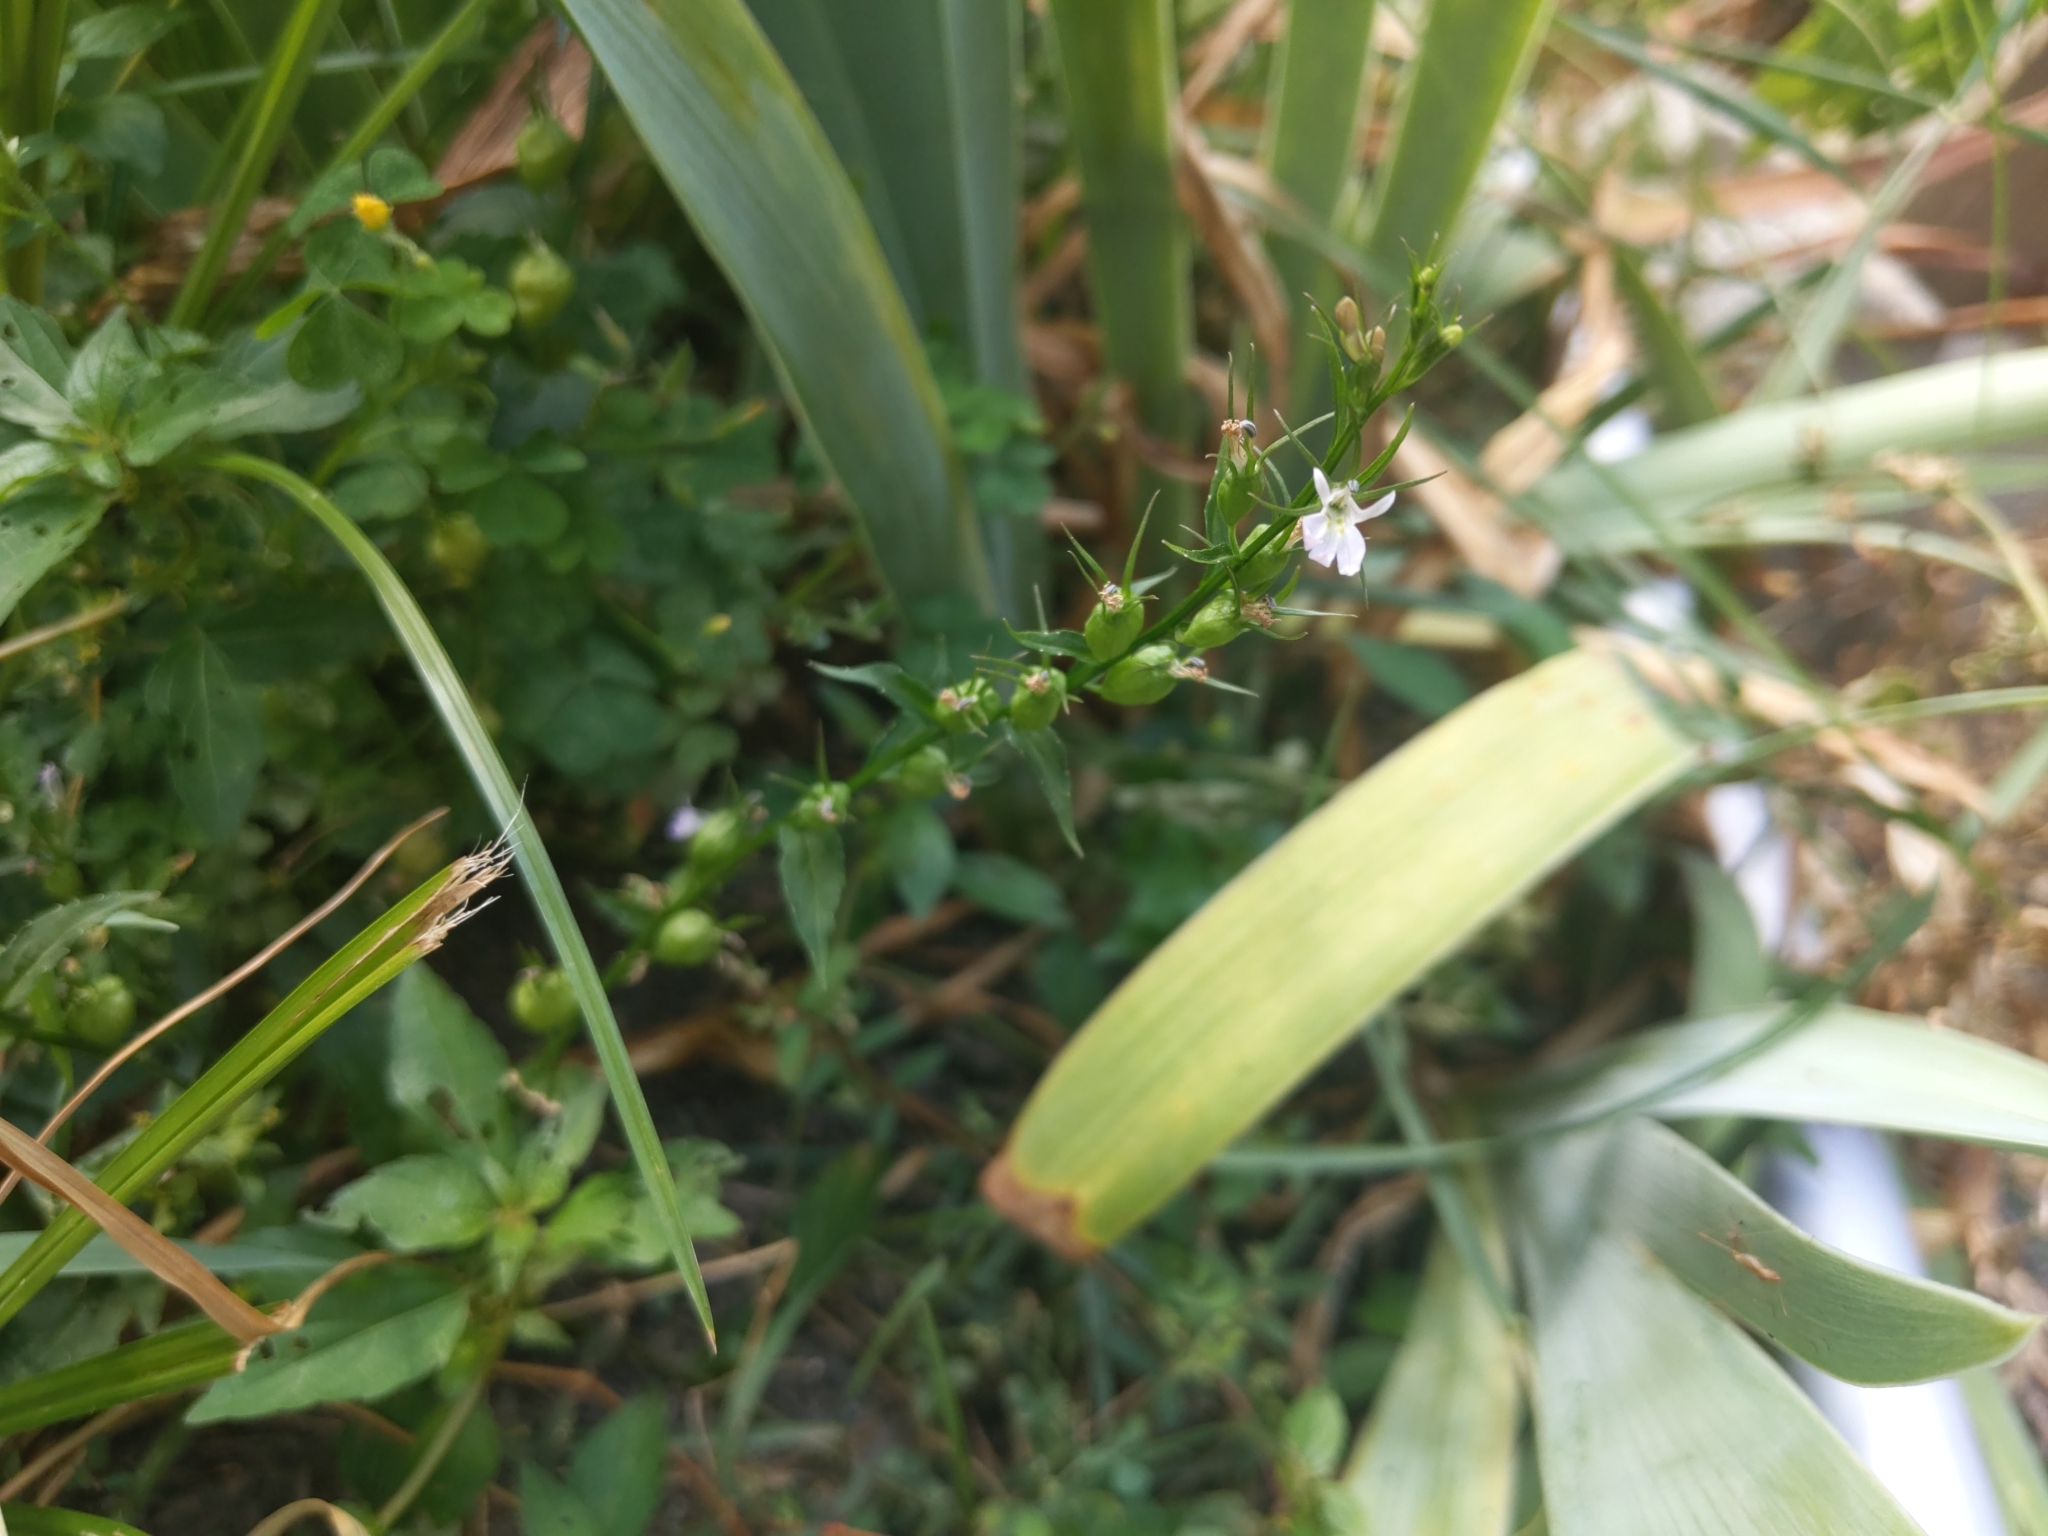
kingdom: Plantae
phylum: Tracheophyta
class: Magnoliopsida
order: Asterales
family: Campanulaceae
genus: Lobelia
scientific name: Lobelia inflata
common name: Indian tobacco
